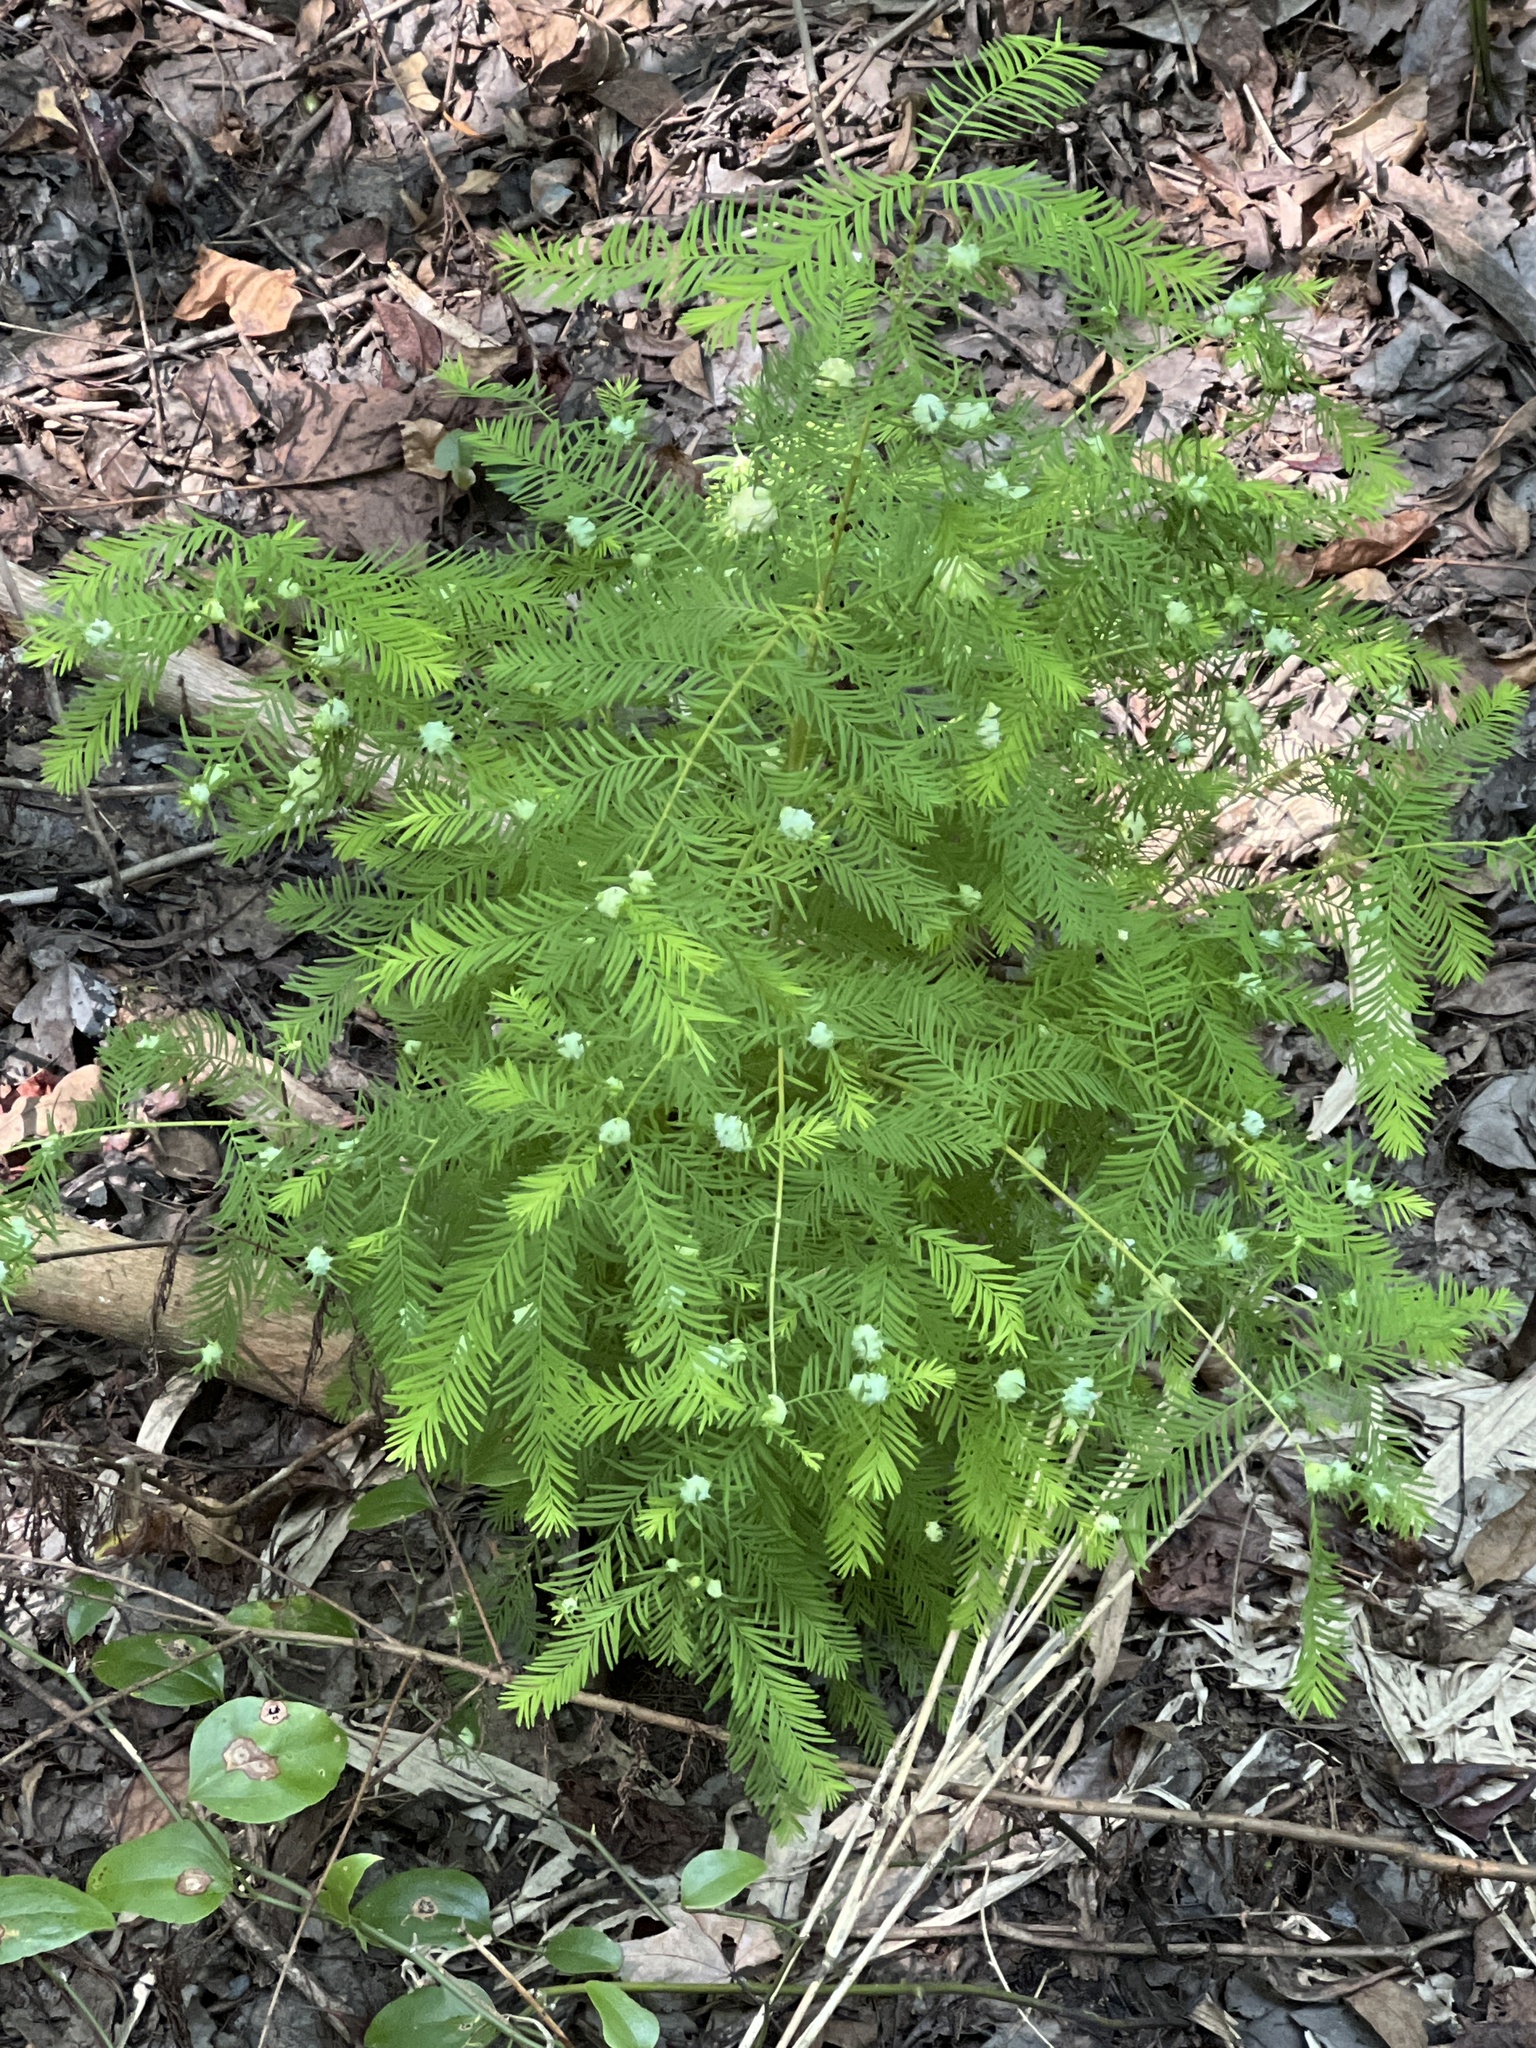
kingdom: Animalia
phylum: Arthropoda
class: Insecta
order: Diptera
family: Cecidomyiidae
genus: Taxodiomyia
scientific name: Taxodiomyia cupressiananassa
